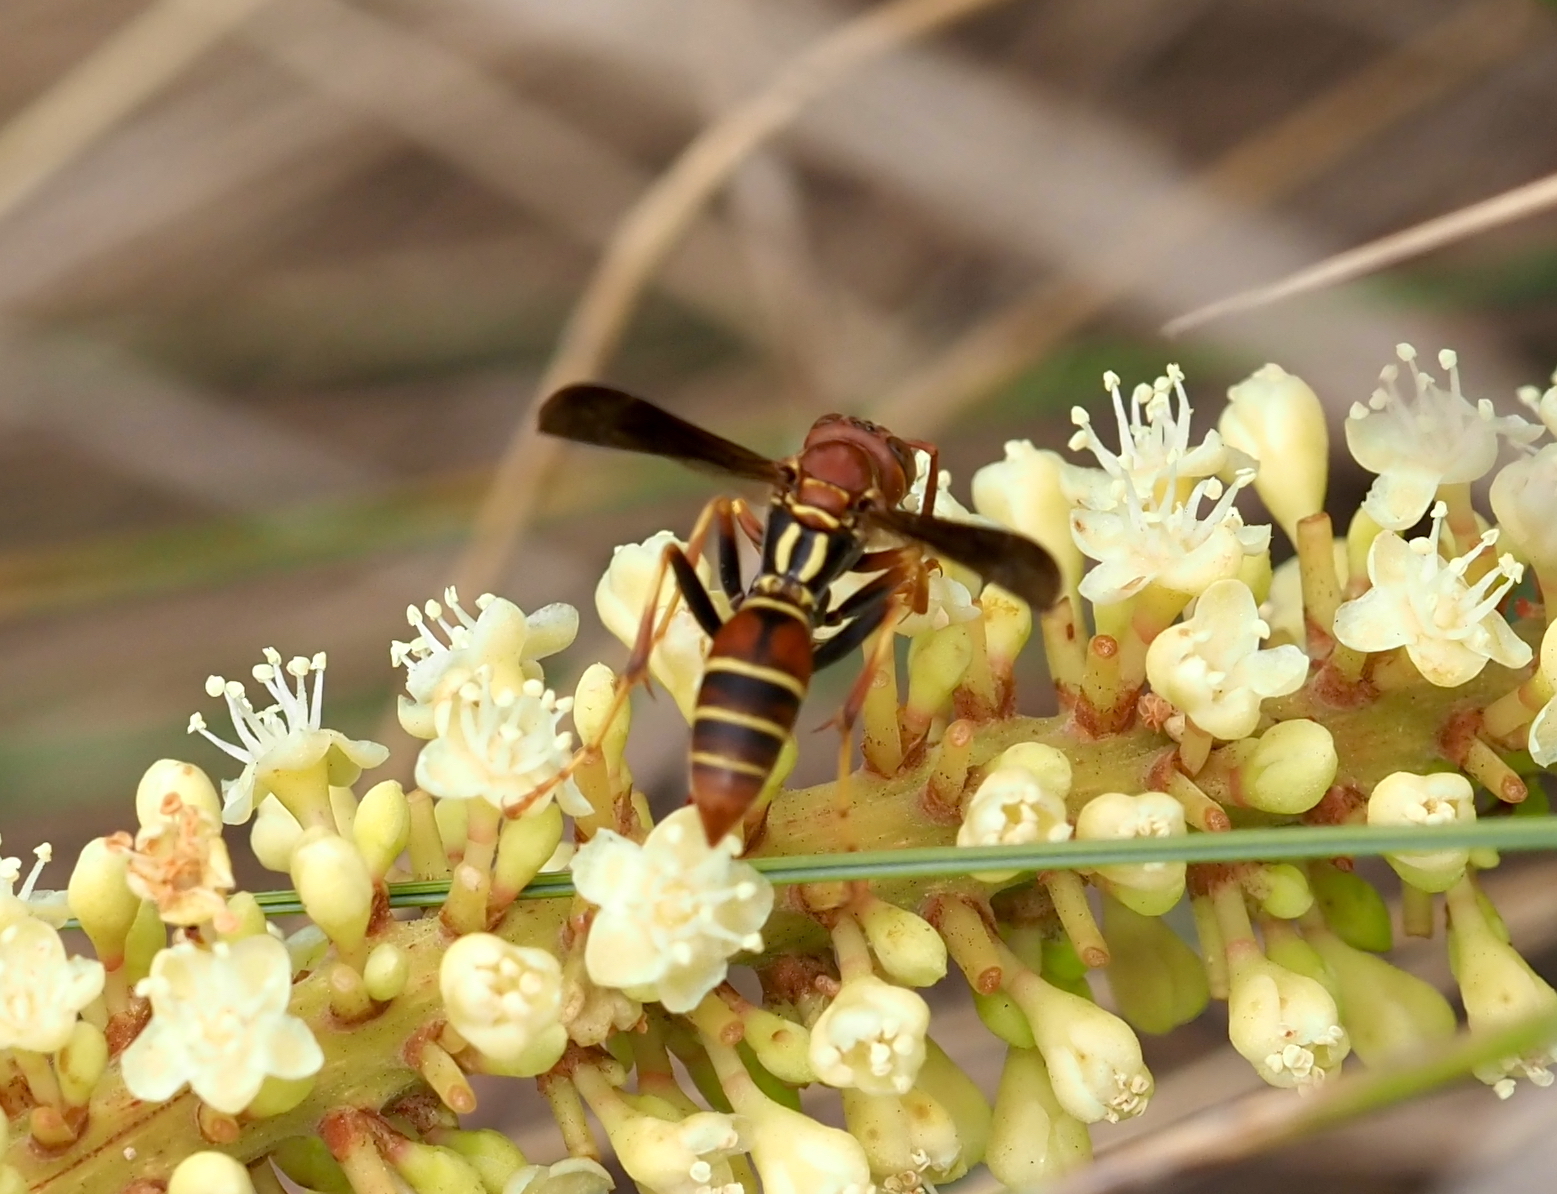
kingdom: Animalia
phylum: Arthropoda
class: Insecta
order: Hymenoptera
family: Eumenidae
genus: Polistes
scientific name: Polistes dorsalis
